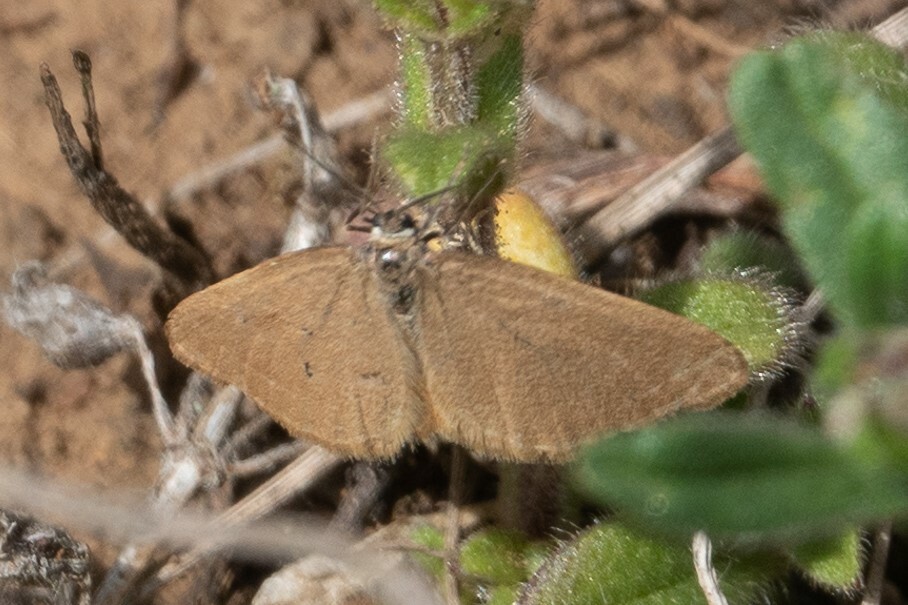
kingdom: Animalia
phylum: Arthropoda
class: Insecta
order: Lepidoptera
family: Geometridae
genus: Minoa
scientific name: Minoa murinata
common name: Drab looper
